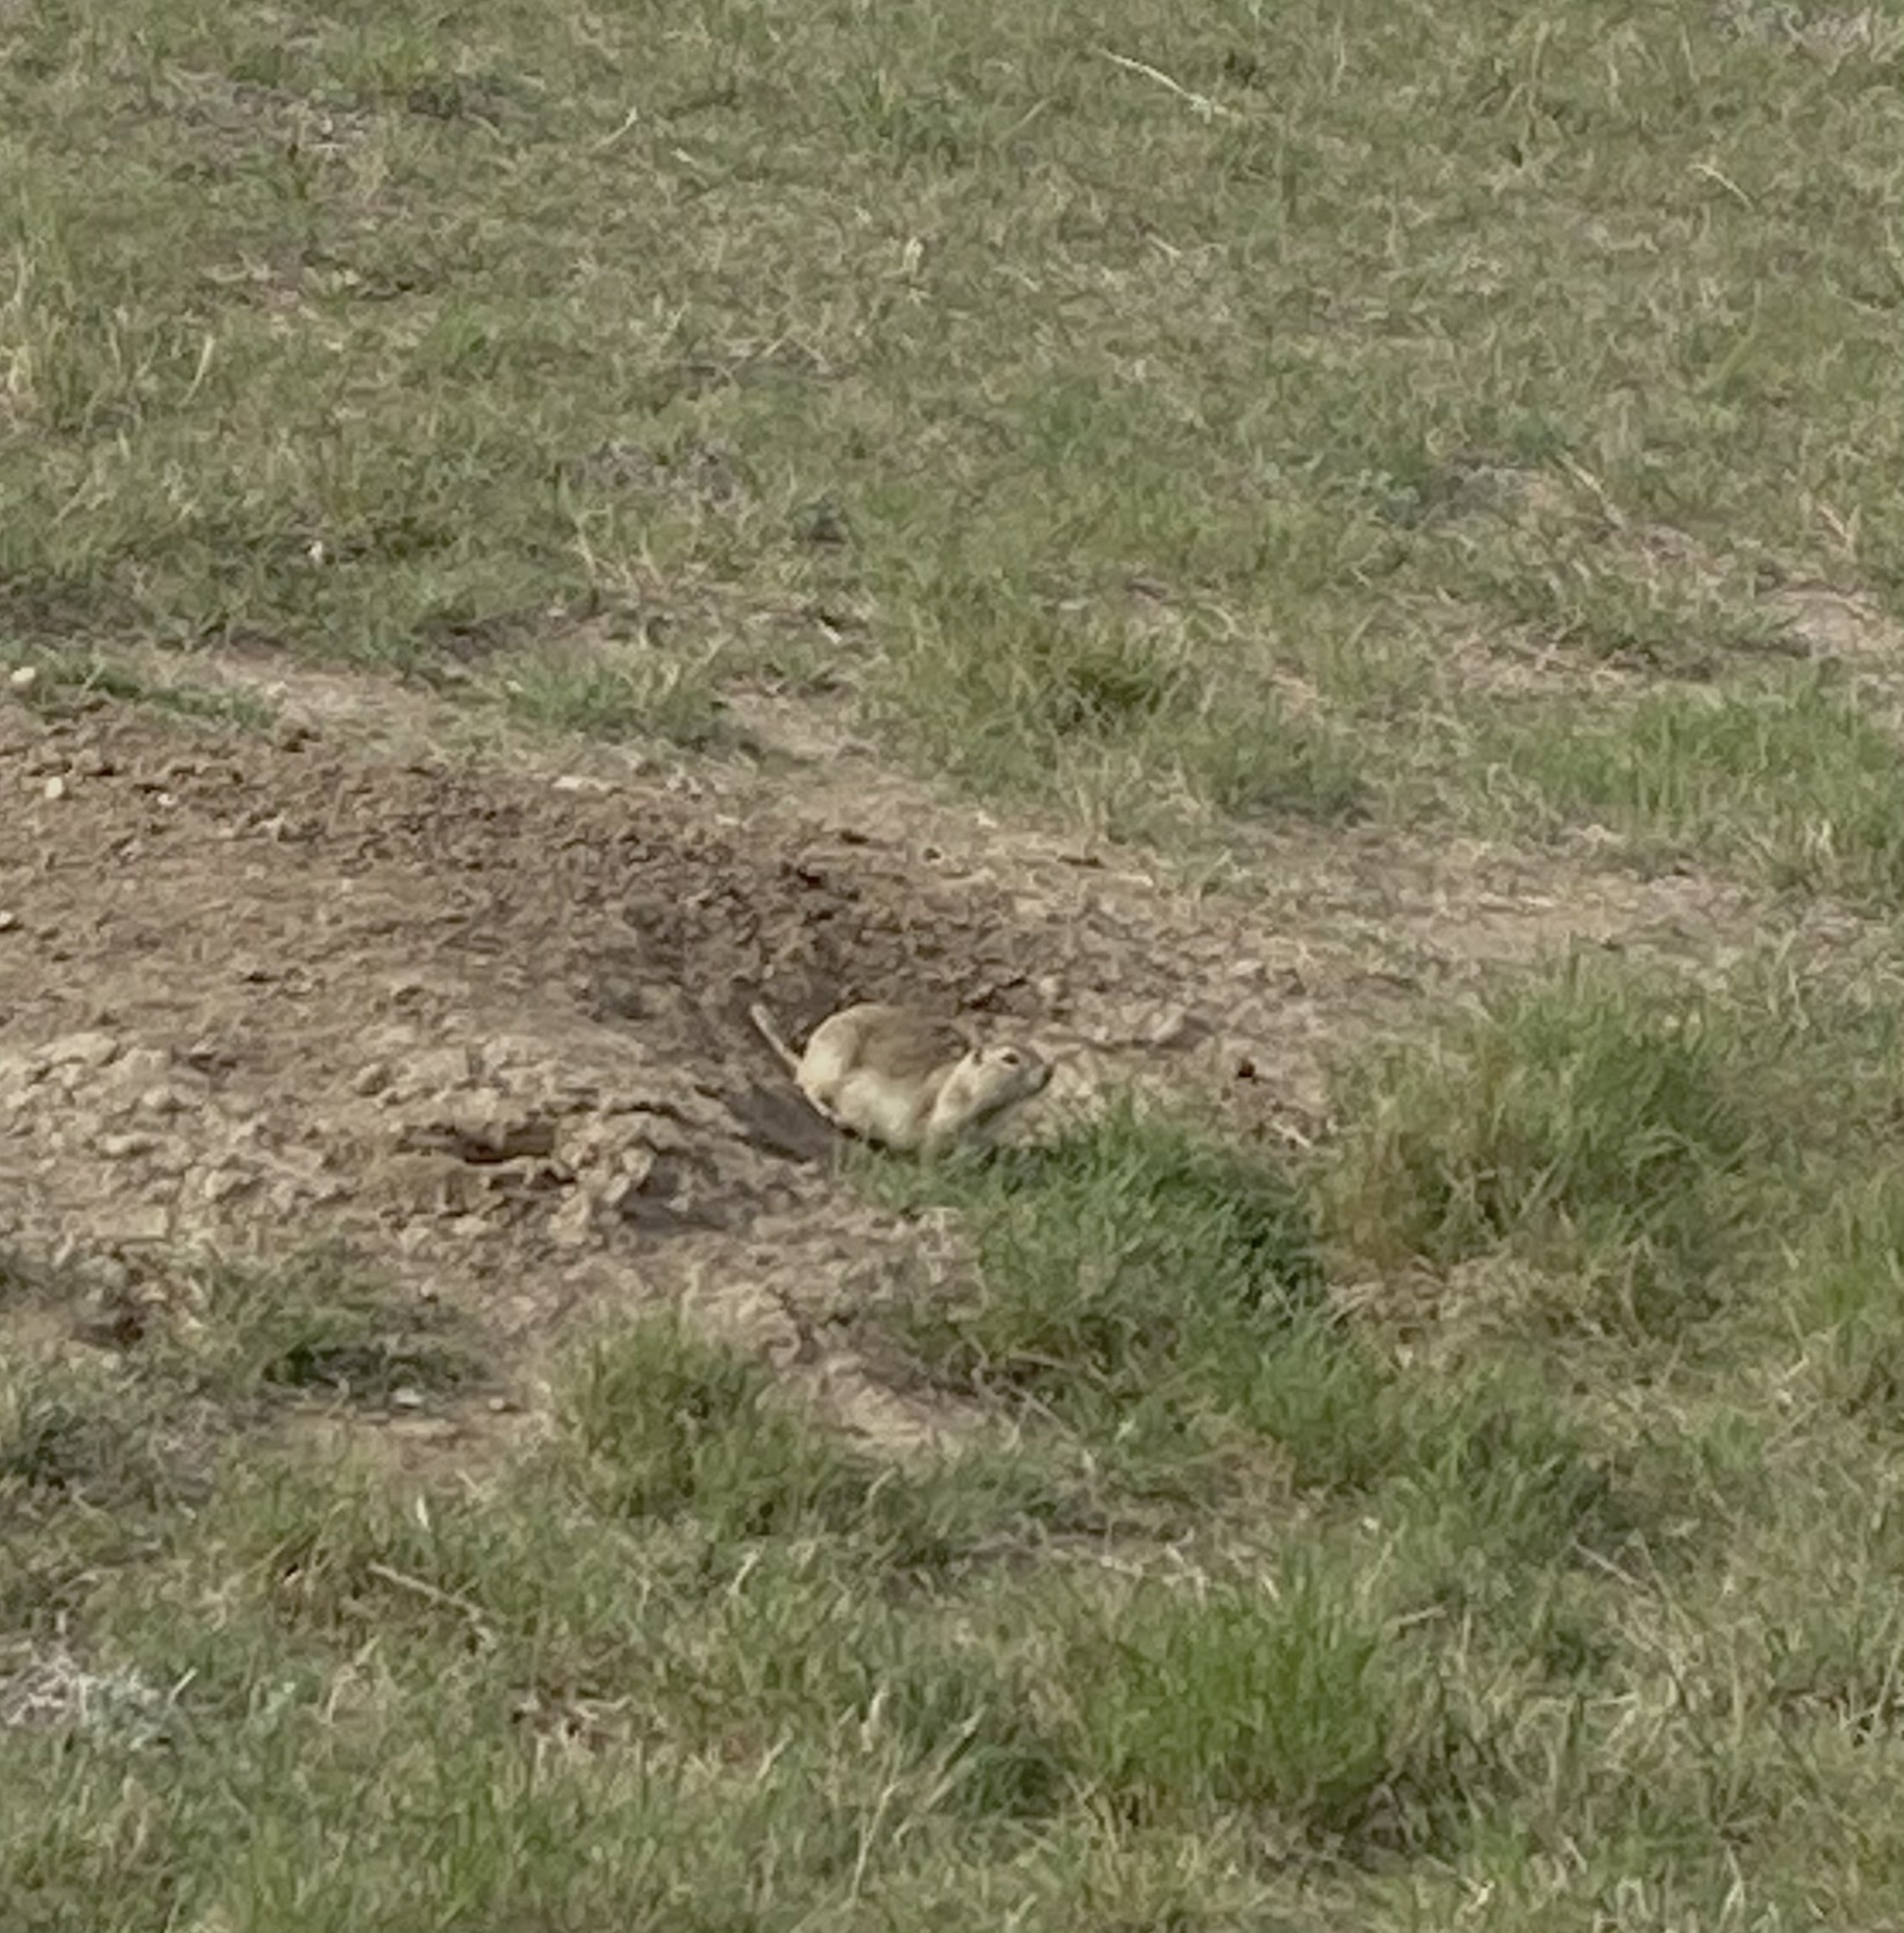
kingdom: Animalia
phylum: Chordata
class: Mammalia
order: Rodentia
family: Sciuridae
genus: Urocitellus
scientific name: Urocitellus richardsonii
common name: Richardson's ground squirrel
